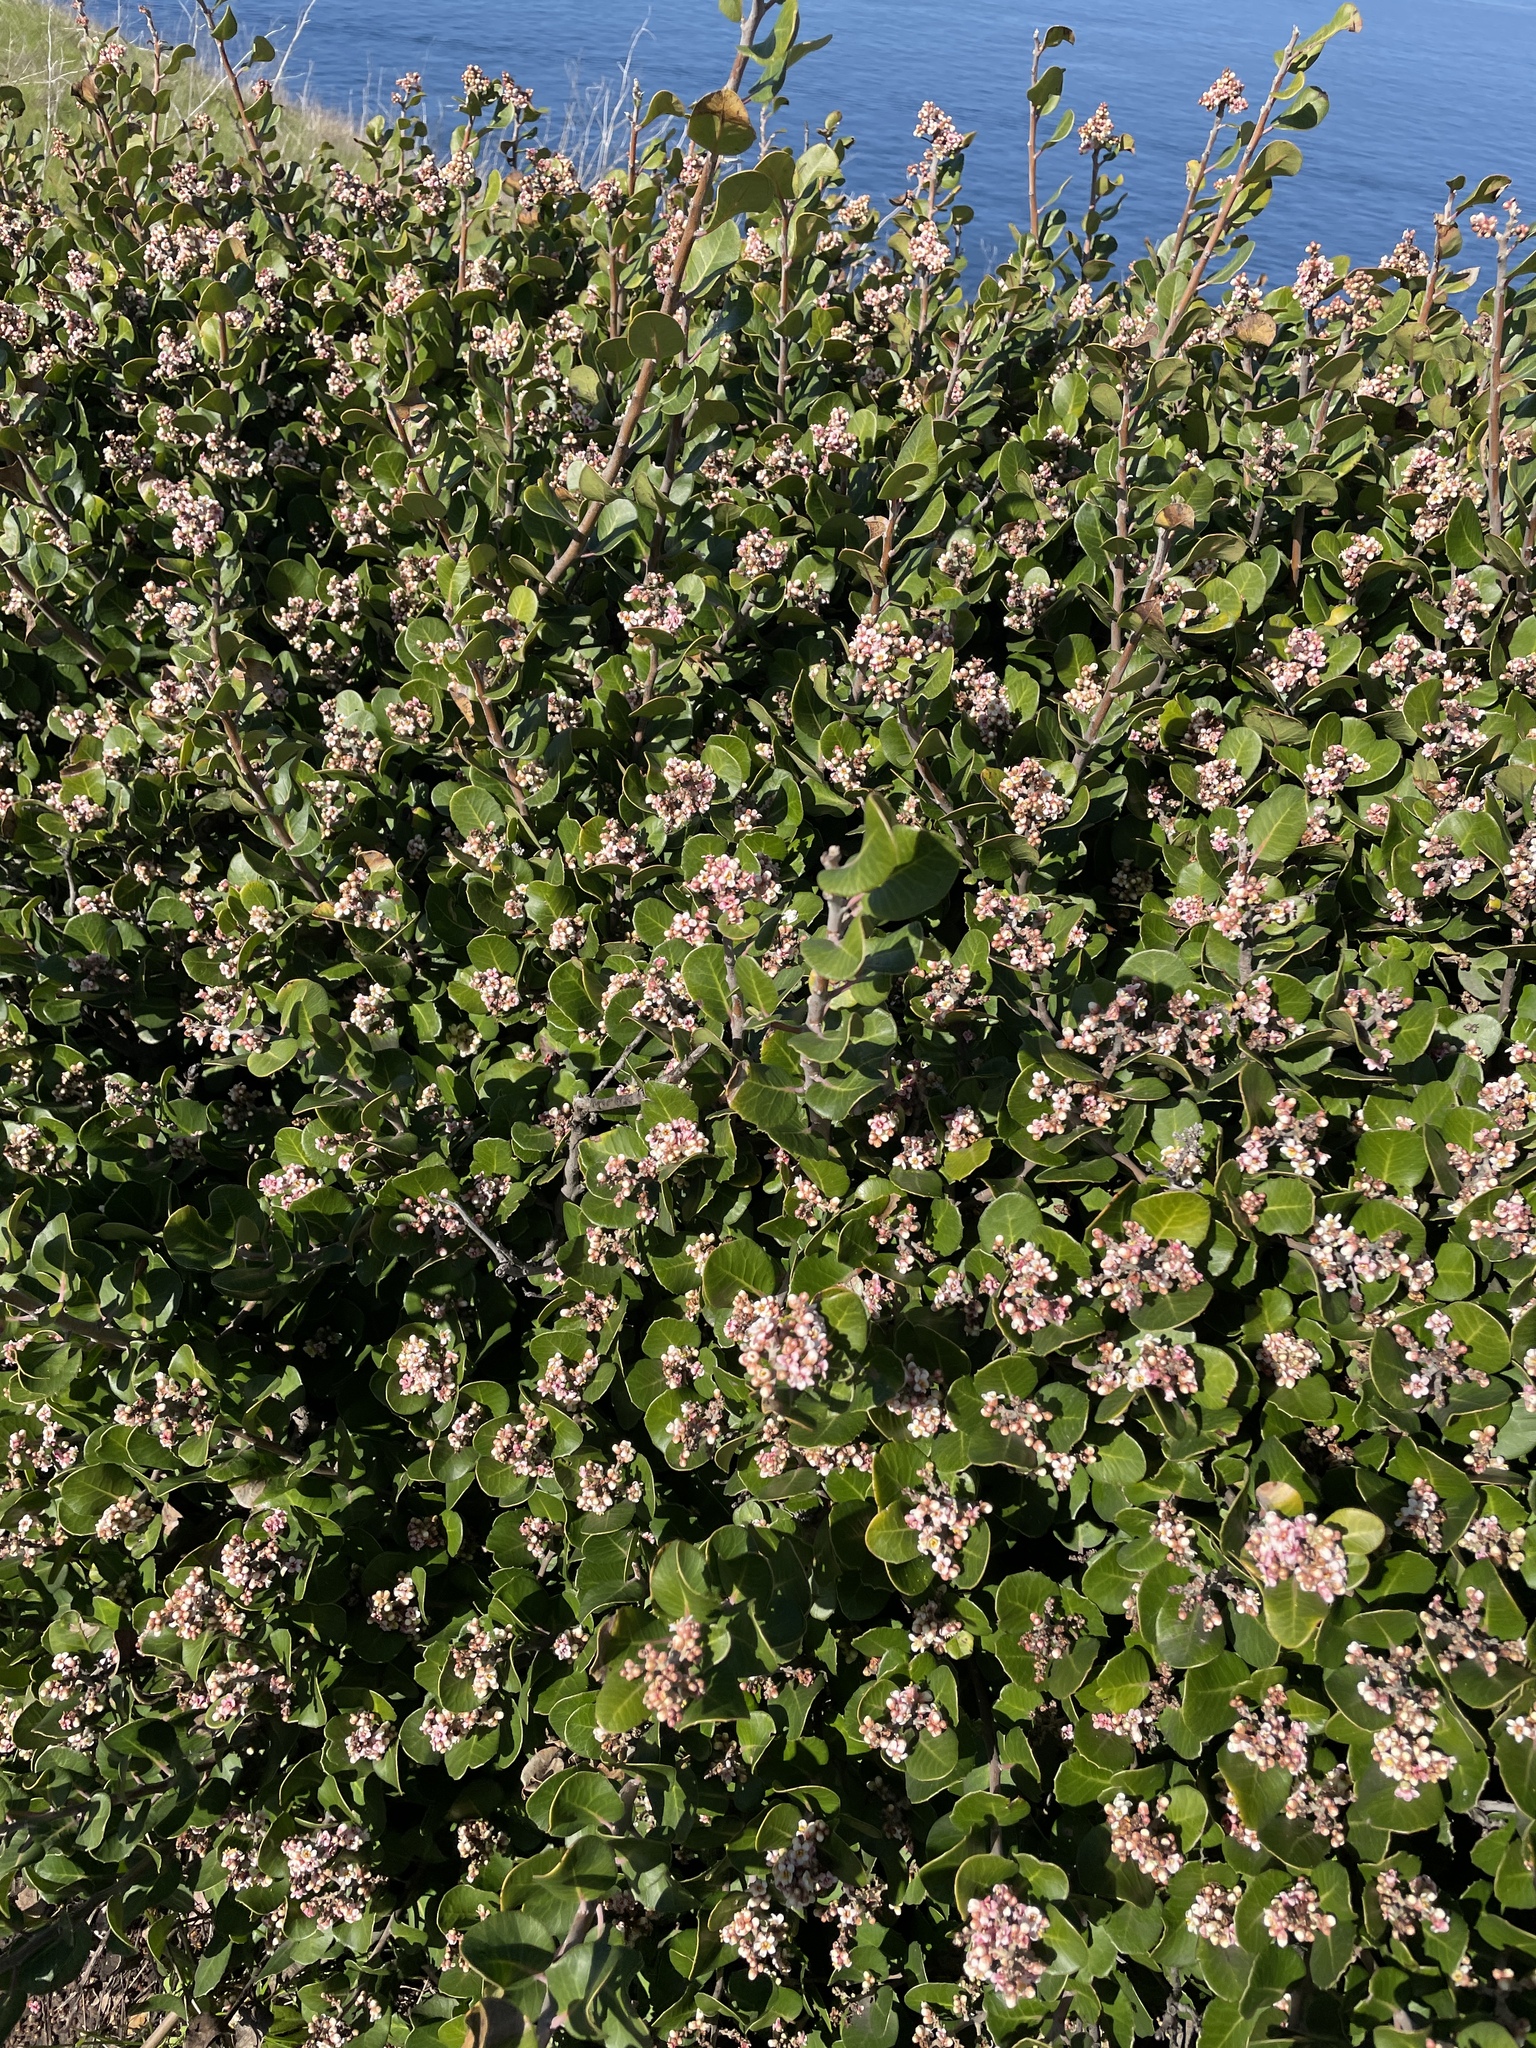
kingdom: Plantae
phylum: Tracheophyta
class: Magnoliopsida
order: Sapindales
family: Anacardiaceae
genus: Rhus
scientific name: Rhus integrifolia
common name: Lemonade sumac
